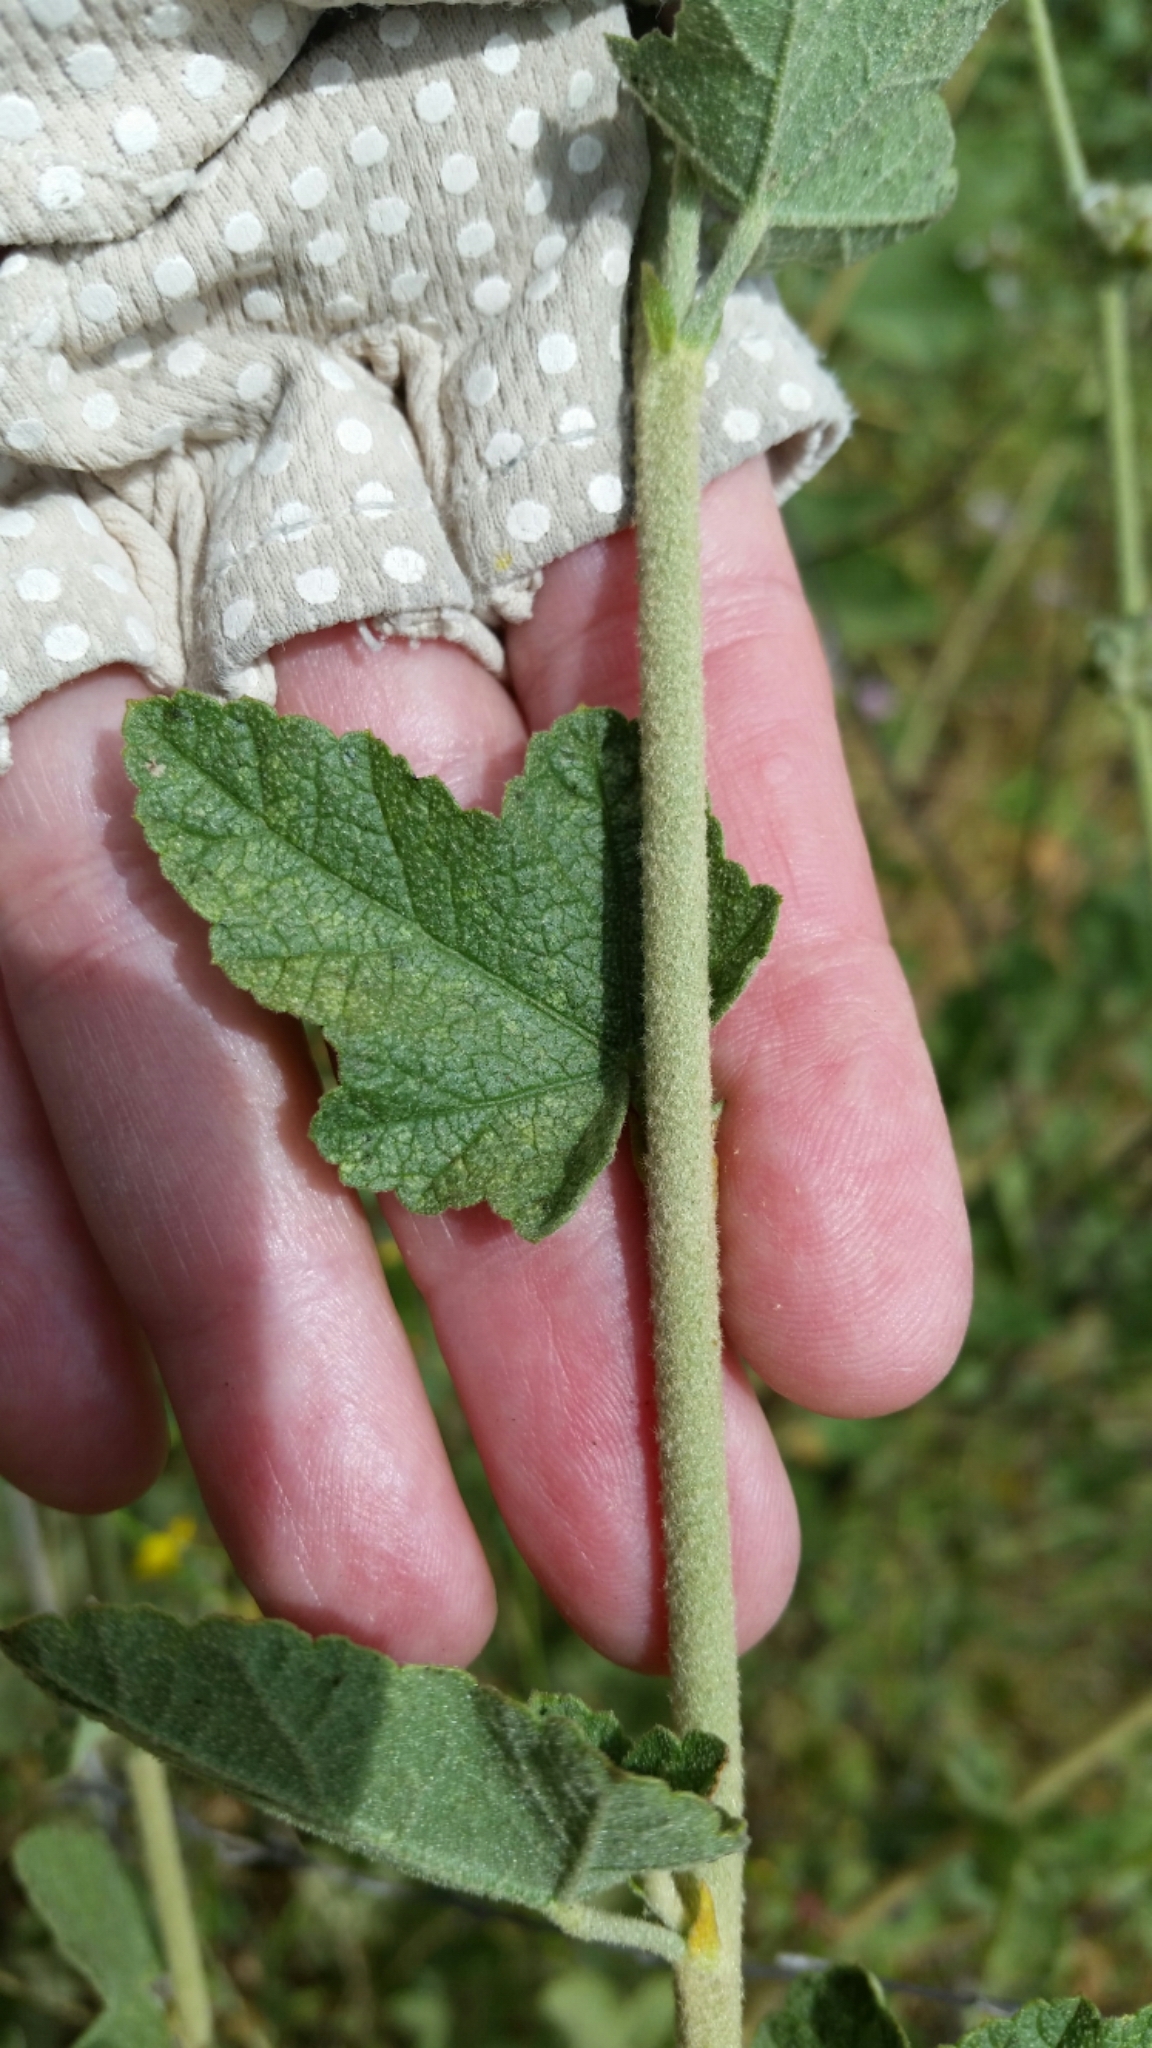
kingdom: Plantae
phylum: Tracheophyta
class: Magnoliopsida
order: Malvales
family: Malvaceae
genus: Malacothamnus
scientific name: Malacothamnus fasciculatus
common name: Sant cruz island bush-mallow
